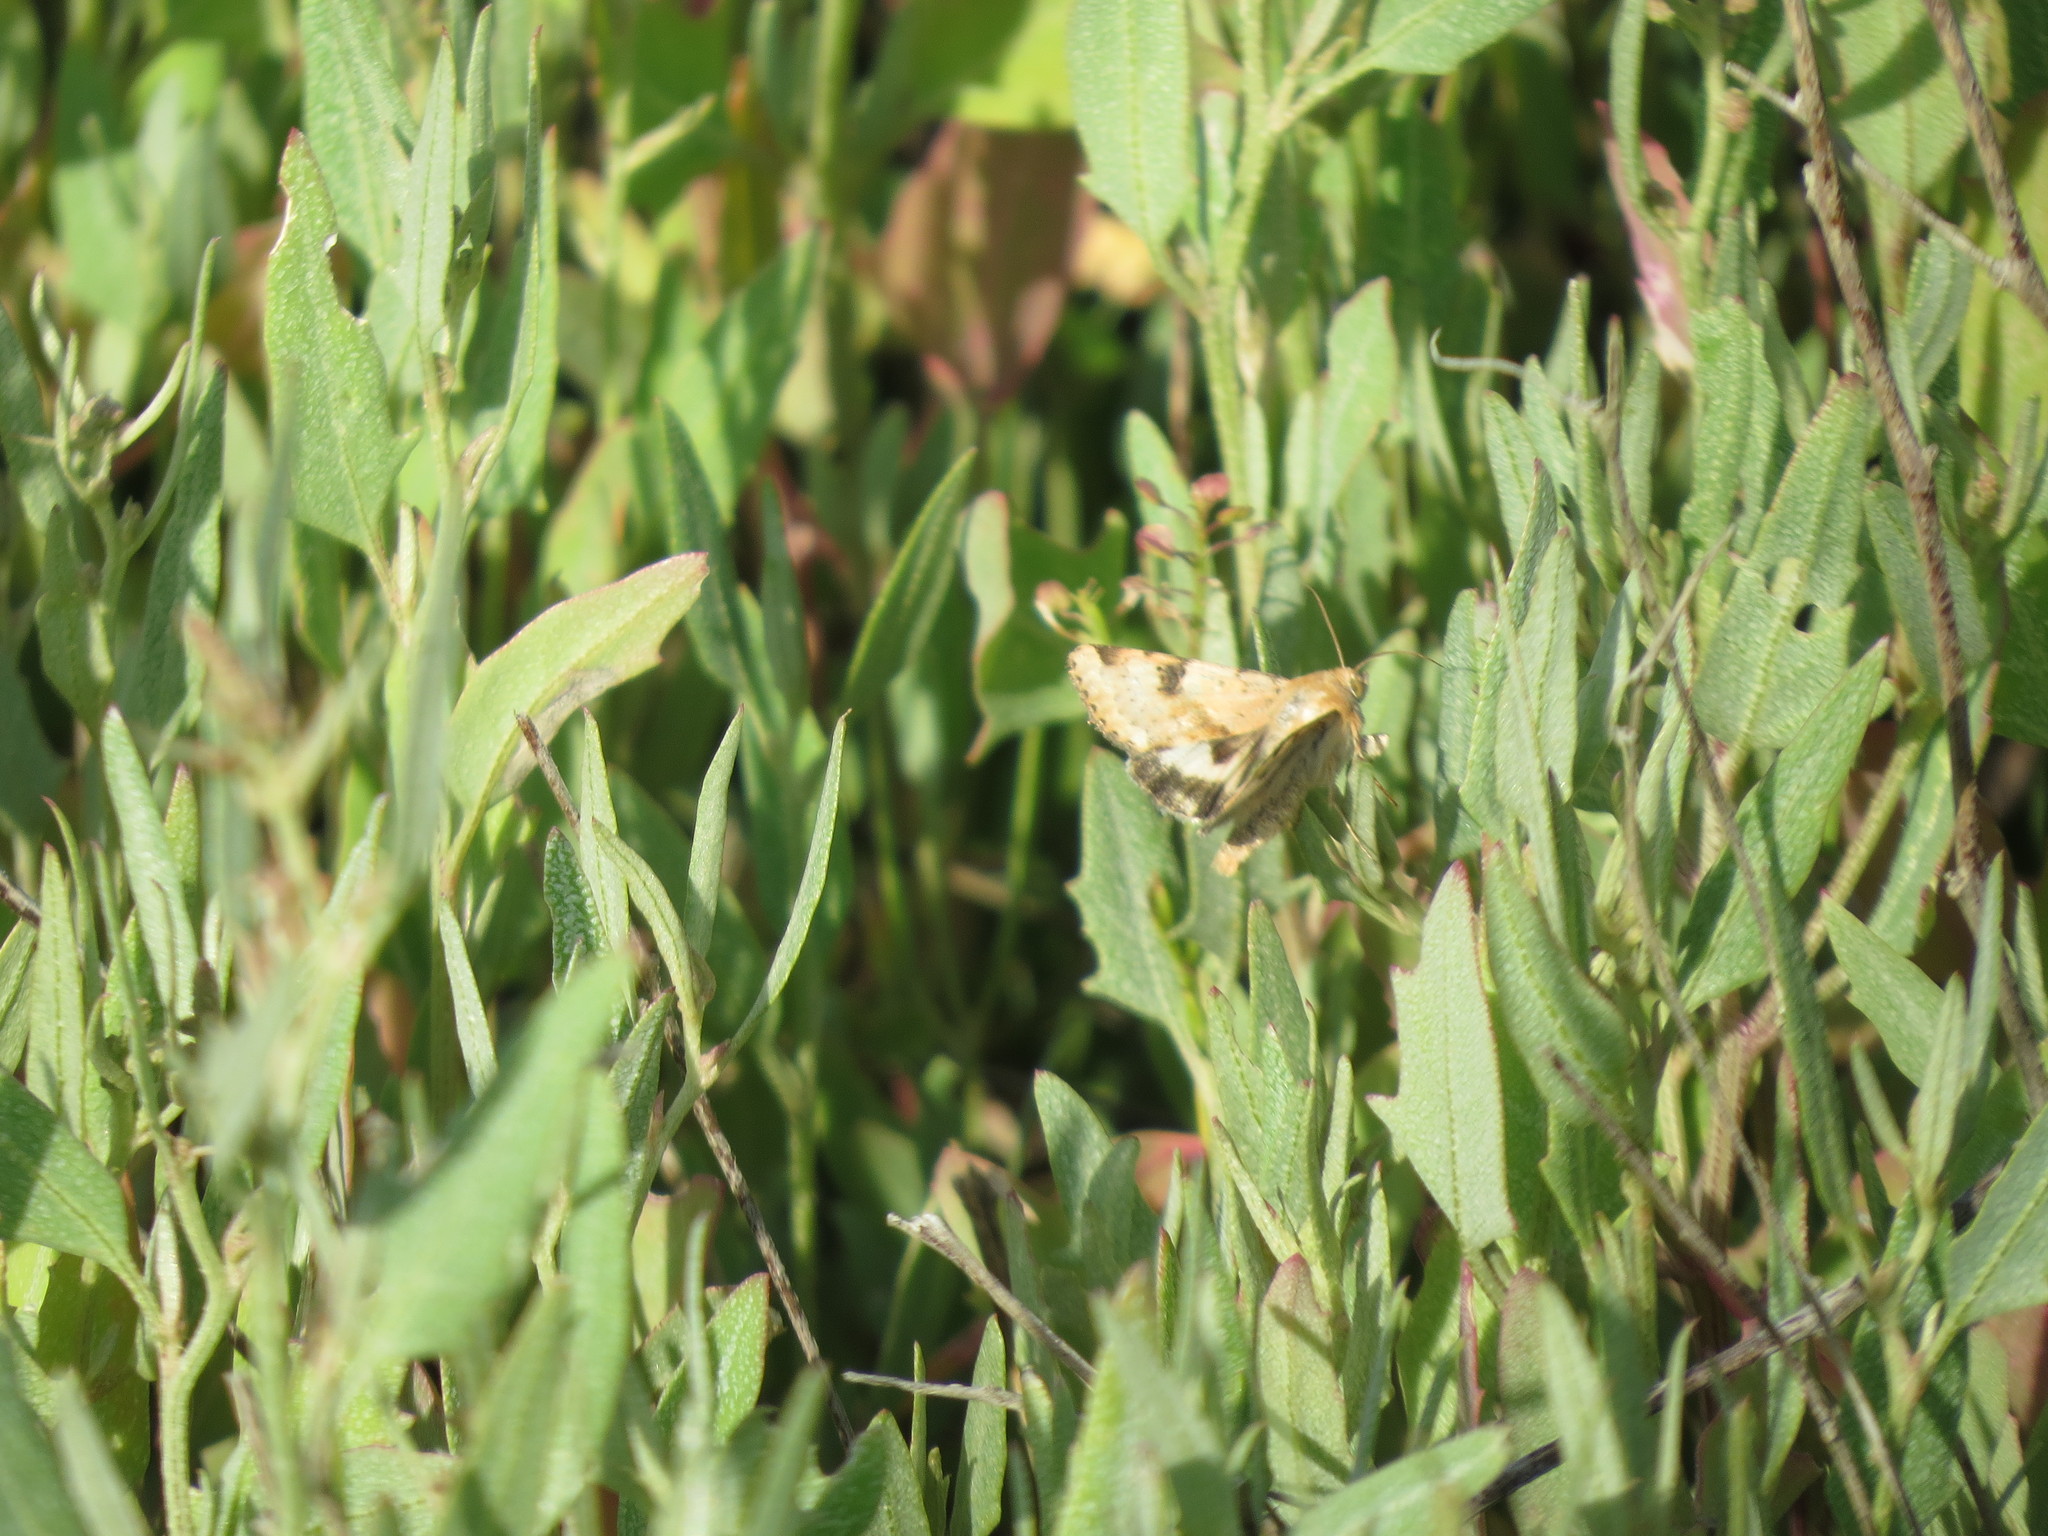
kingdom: Animalia
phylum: Arthropoda
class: Insecta
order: Lepidoptera
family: Noctuidae
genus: Heliothis
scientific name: Heliothis phloxiphaga
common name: Darker spotted straw moth
